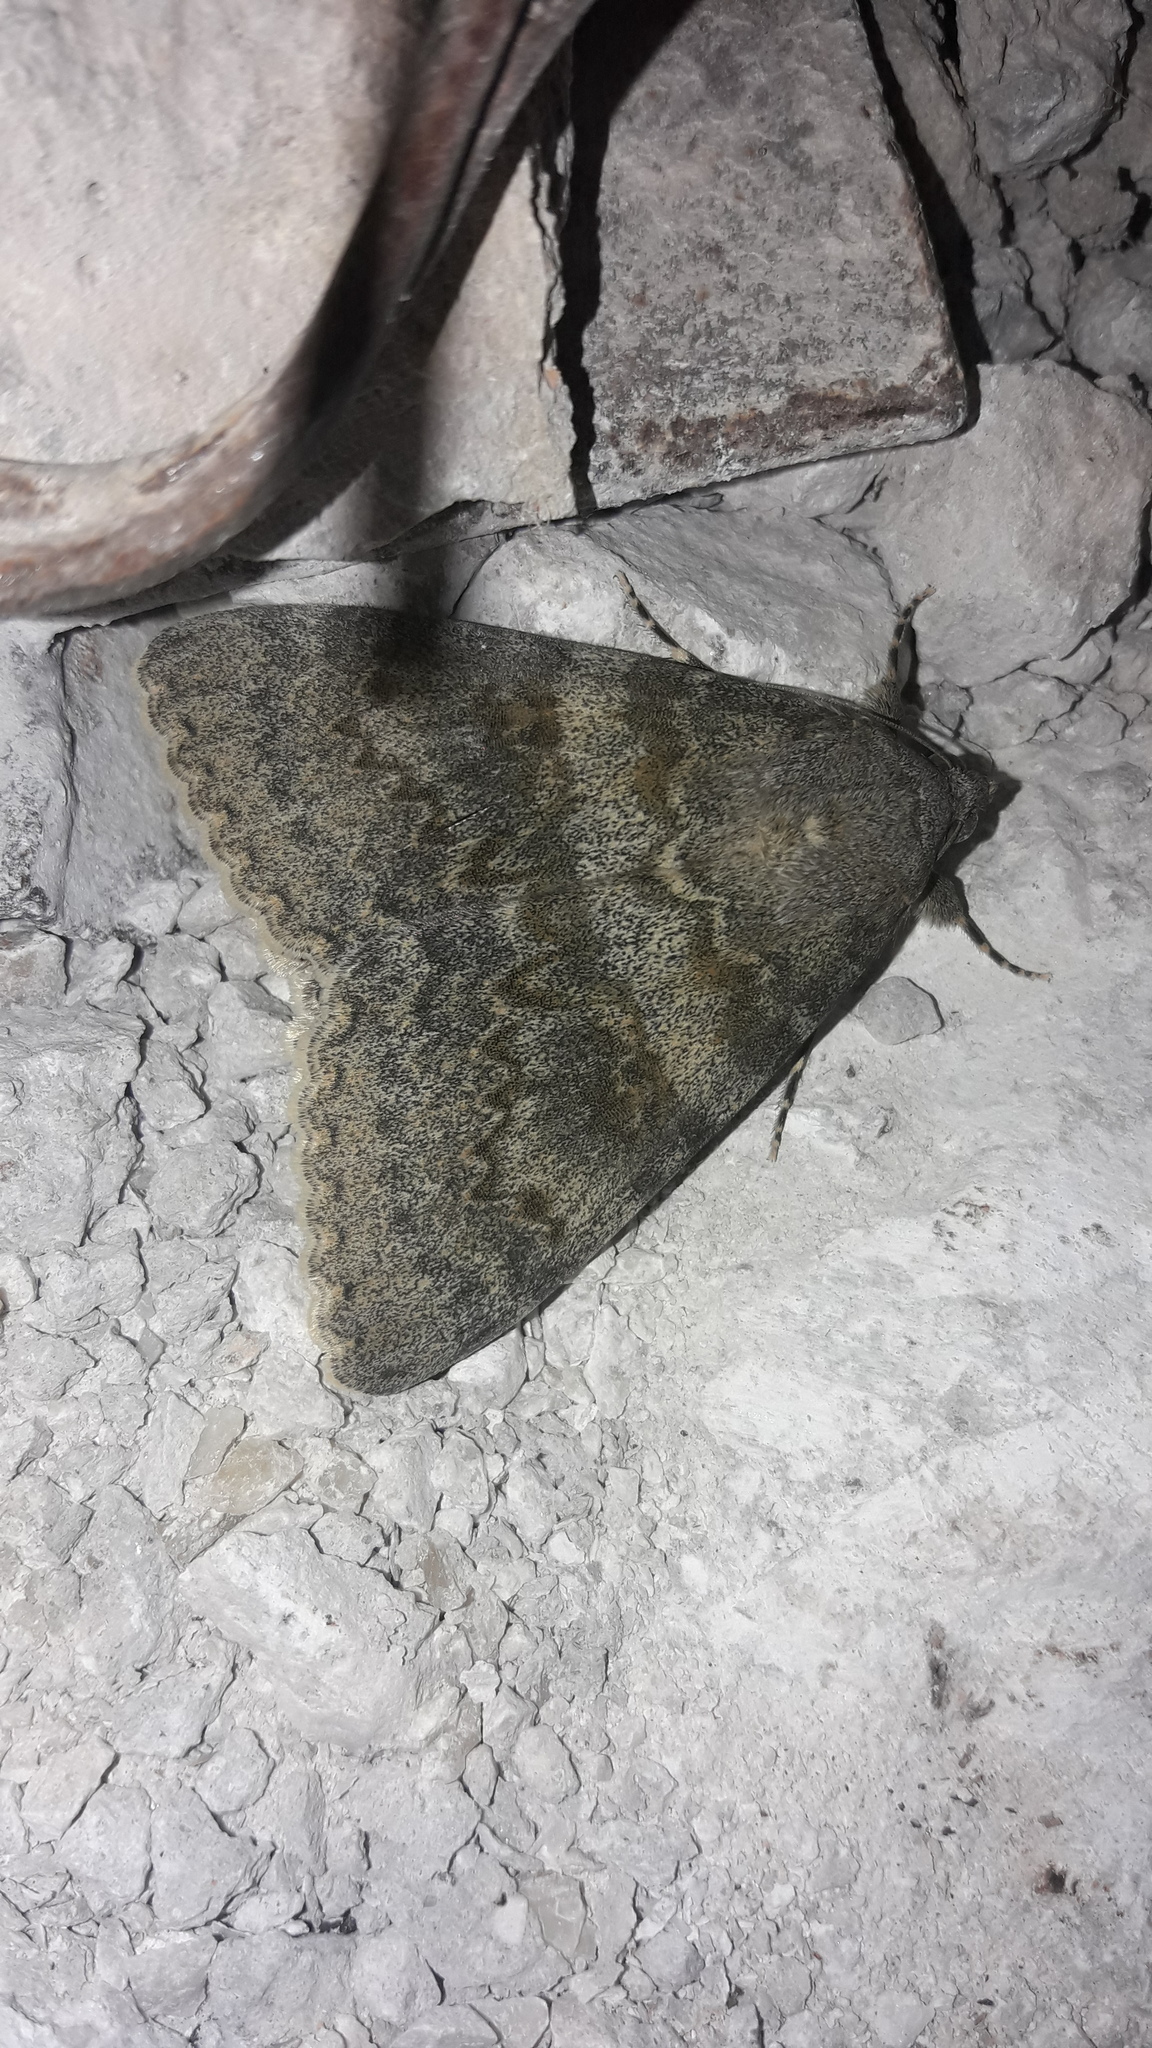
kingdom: Animalia
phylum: Arthropoda
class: Insecta
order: Lepidoptera
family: Erebidae
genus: Catocala
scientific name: Catocala elocata
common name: French red underwing
